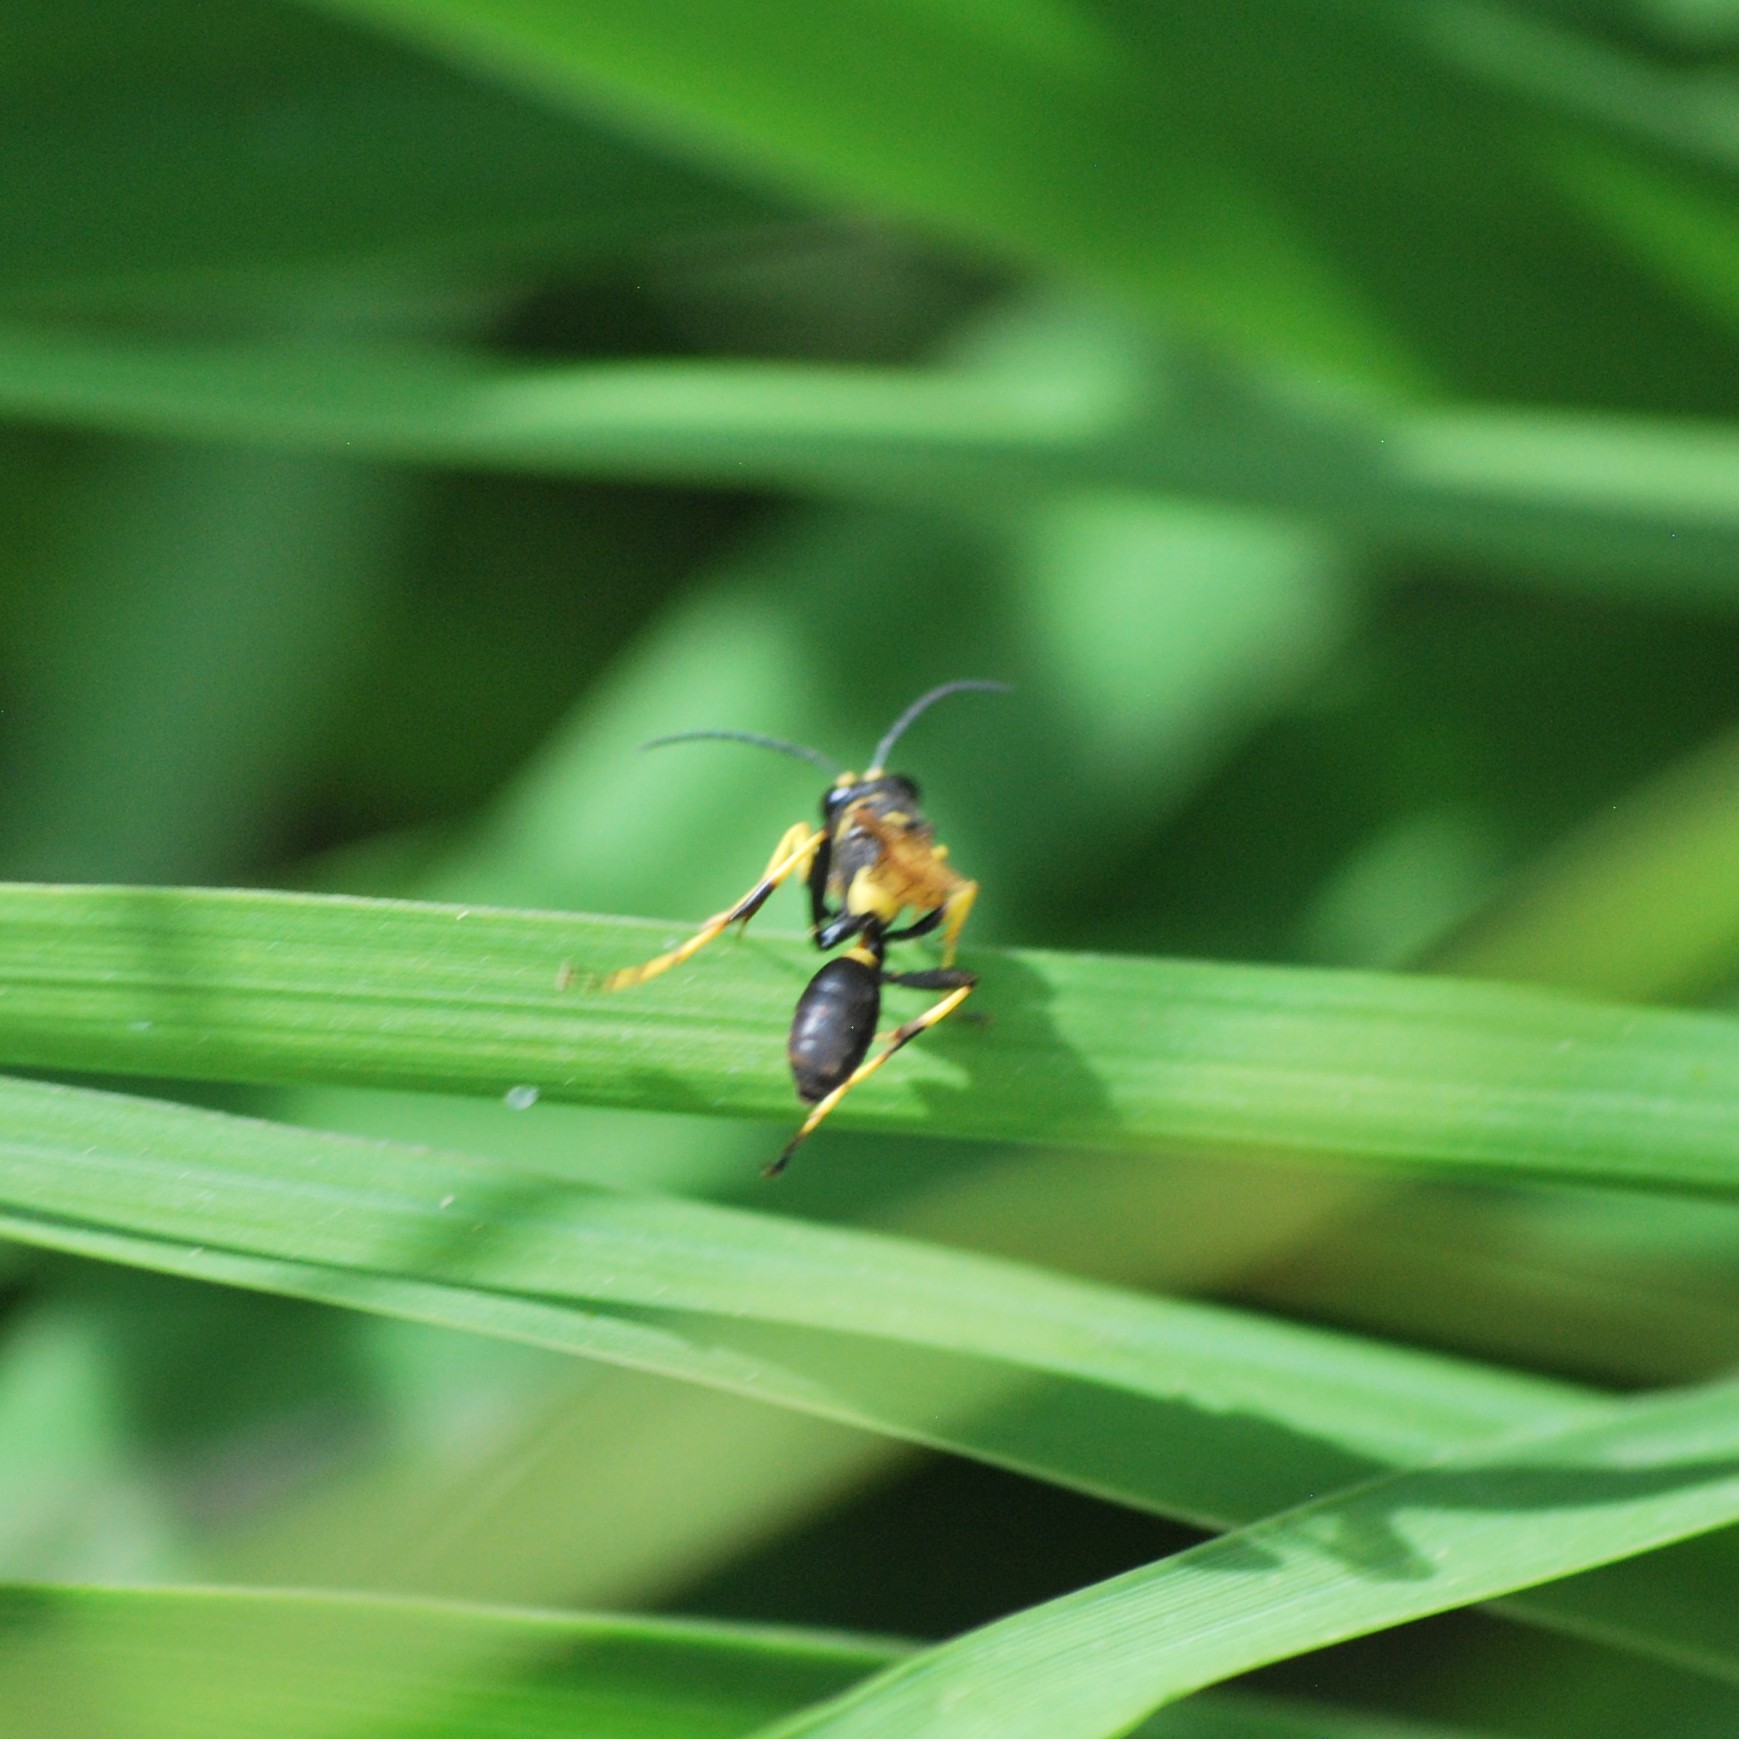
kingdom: Animalia
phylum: Arthropoda
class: Insecta
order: Hymenoptera
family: Sphecidae
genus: Sceliphron
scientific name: Sceliphron caementarium
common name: Mud dauber
